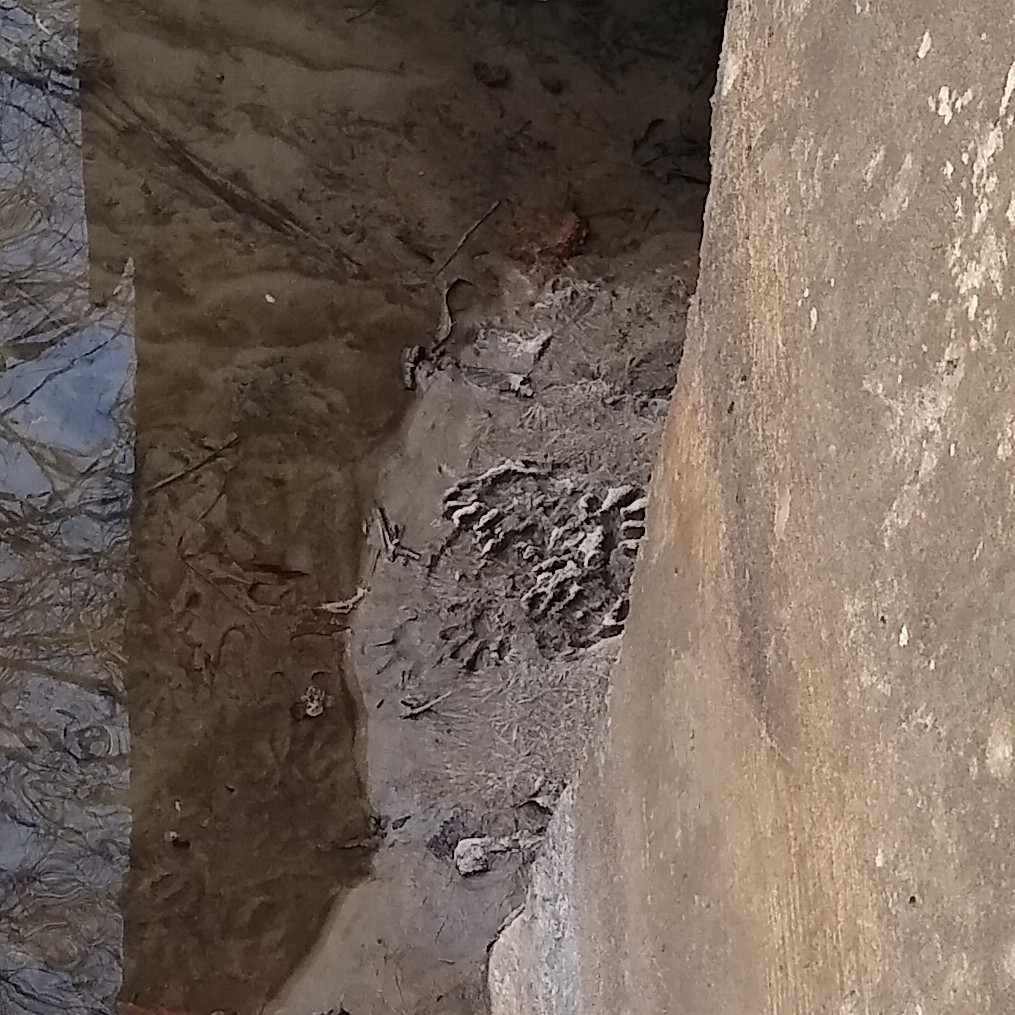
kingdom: Animalia
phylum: Chordata
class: Mammalia
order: Carnivora
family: Procyonidae
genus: Procyon
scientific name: Procyon lotor
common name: Raccoon
